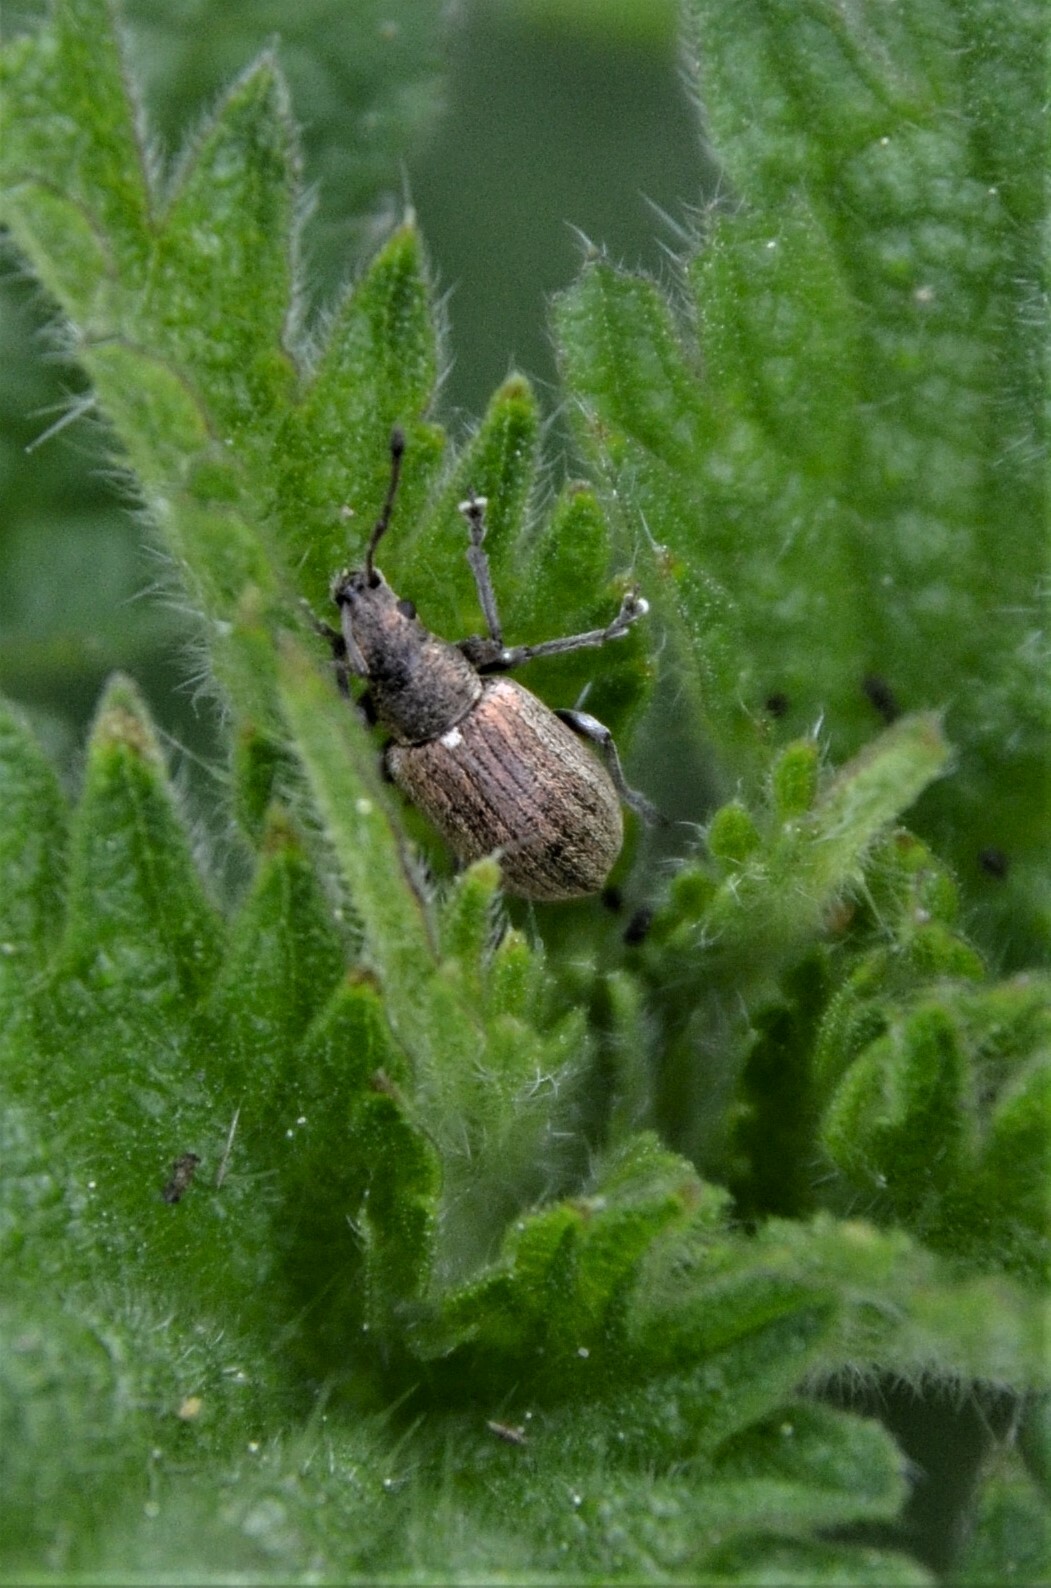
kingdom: Animalia
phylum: Arthropoda
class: Insecta
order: Coleoptera
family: Curculionidae
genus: Phyllobius
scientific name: Phyllobius pyri
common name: Common leaf weevil
